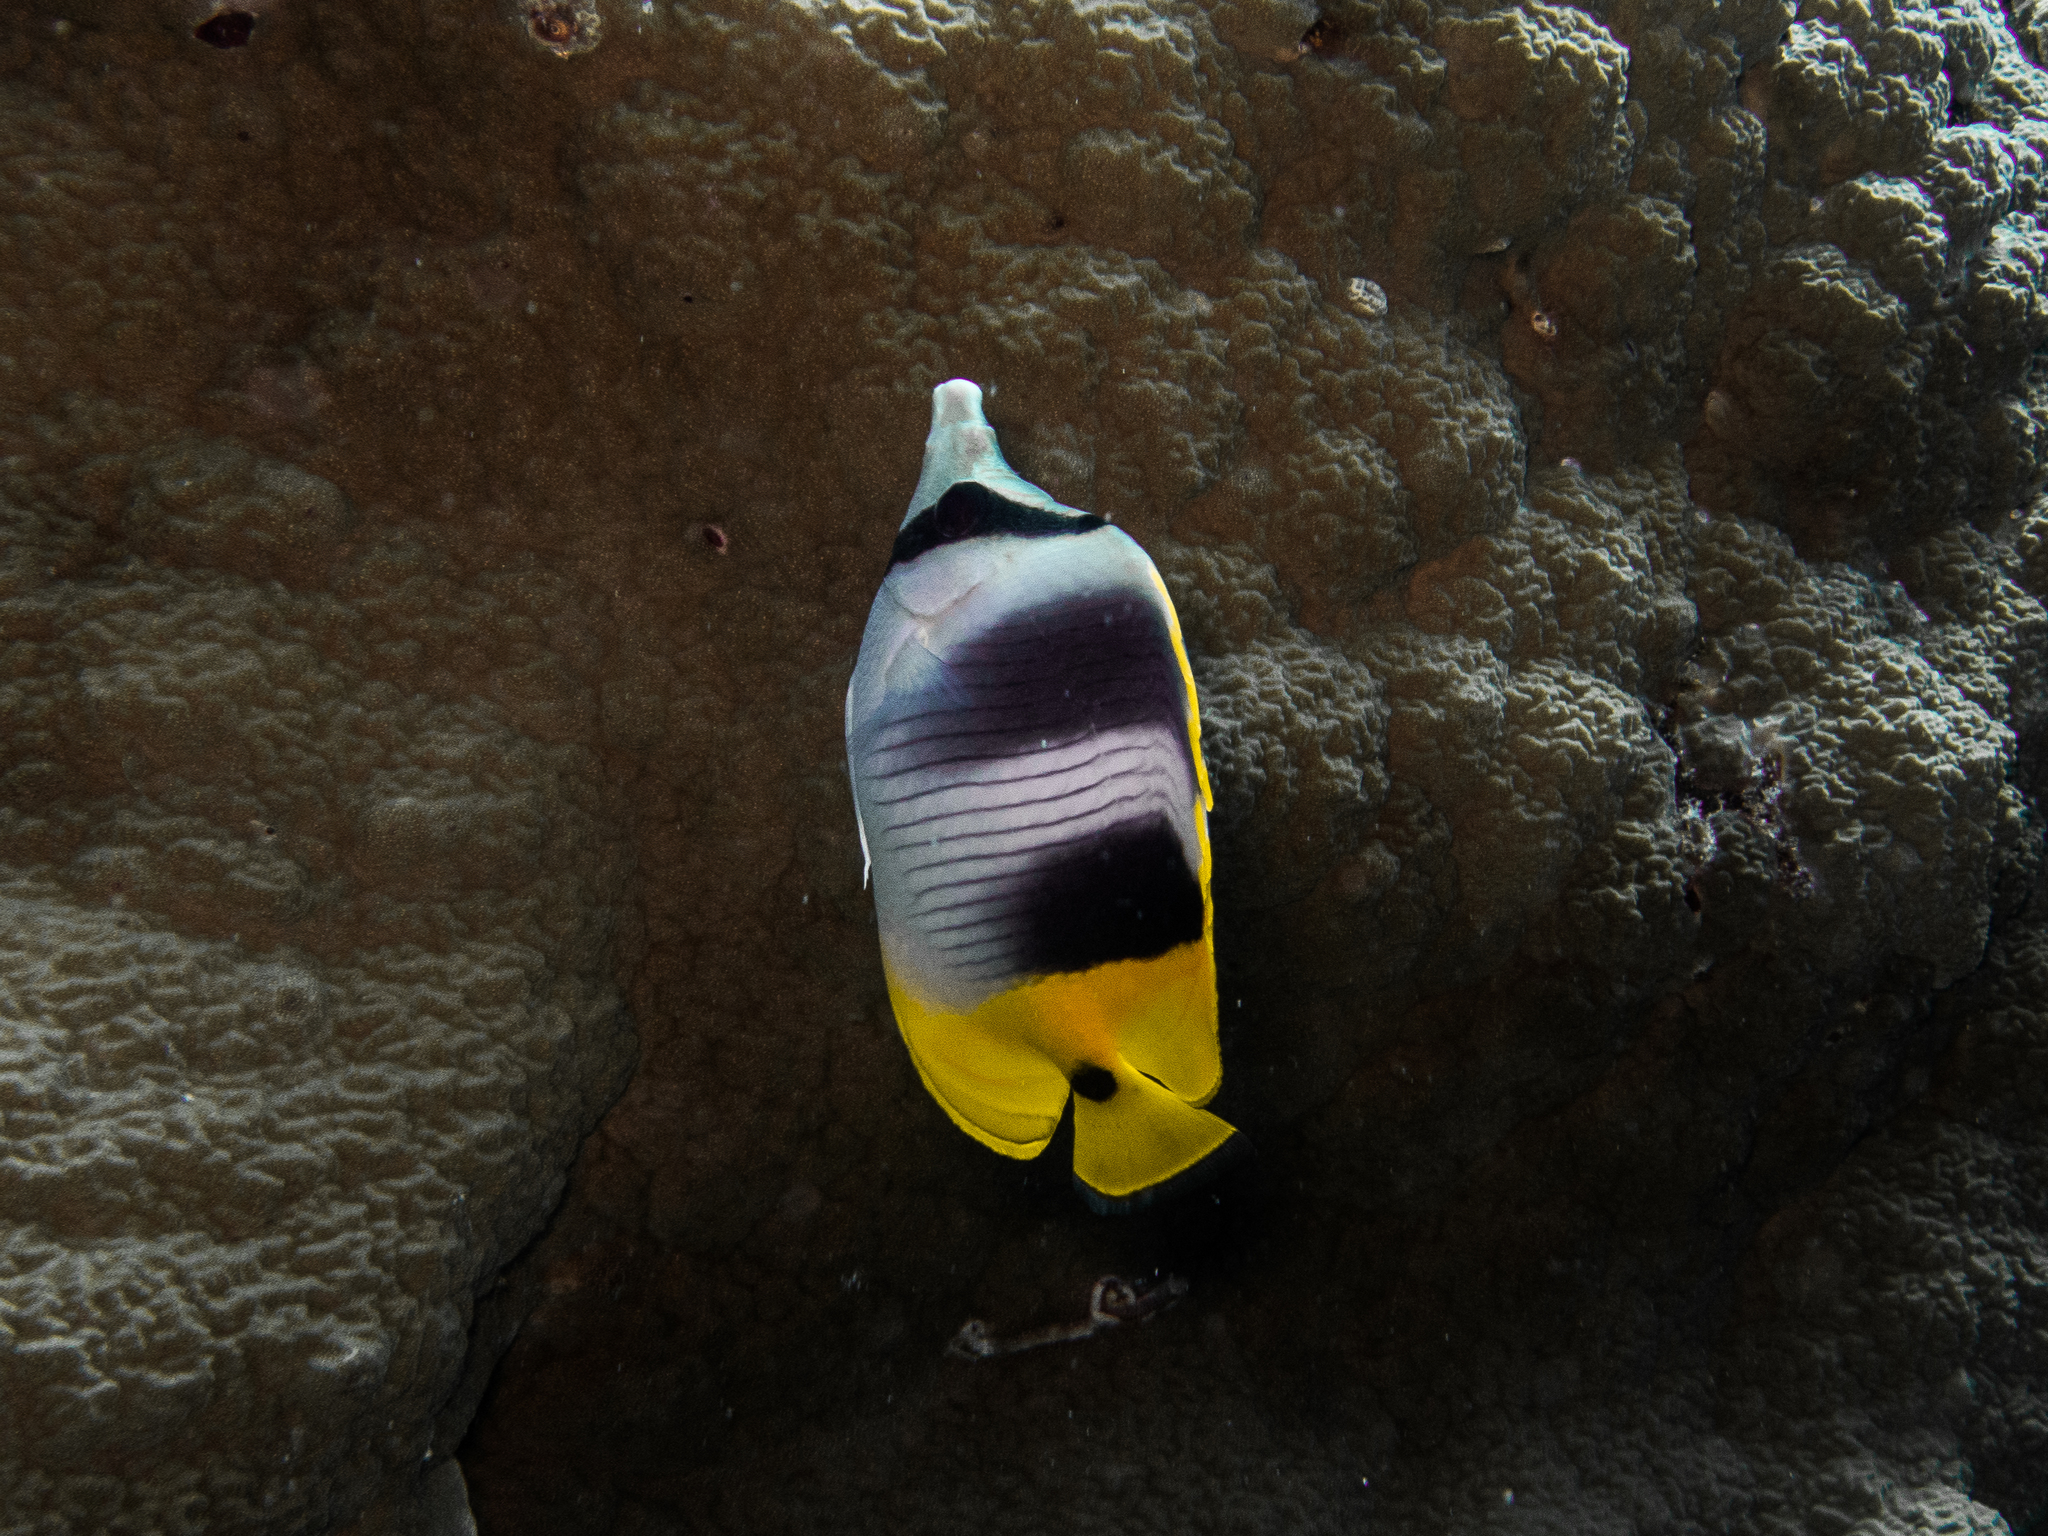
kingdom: Animalia
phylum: Chordata
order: Perciformes
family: Chaetodontidae
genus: Chaetodon
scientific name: Chaetodon ulietensis
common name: Pacific double-saddle butterflyfish
